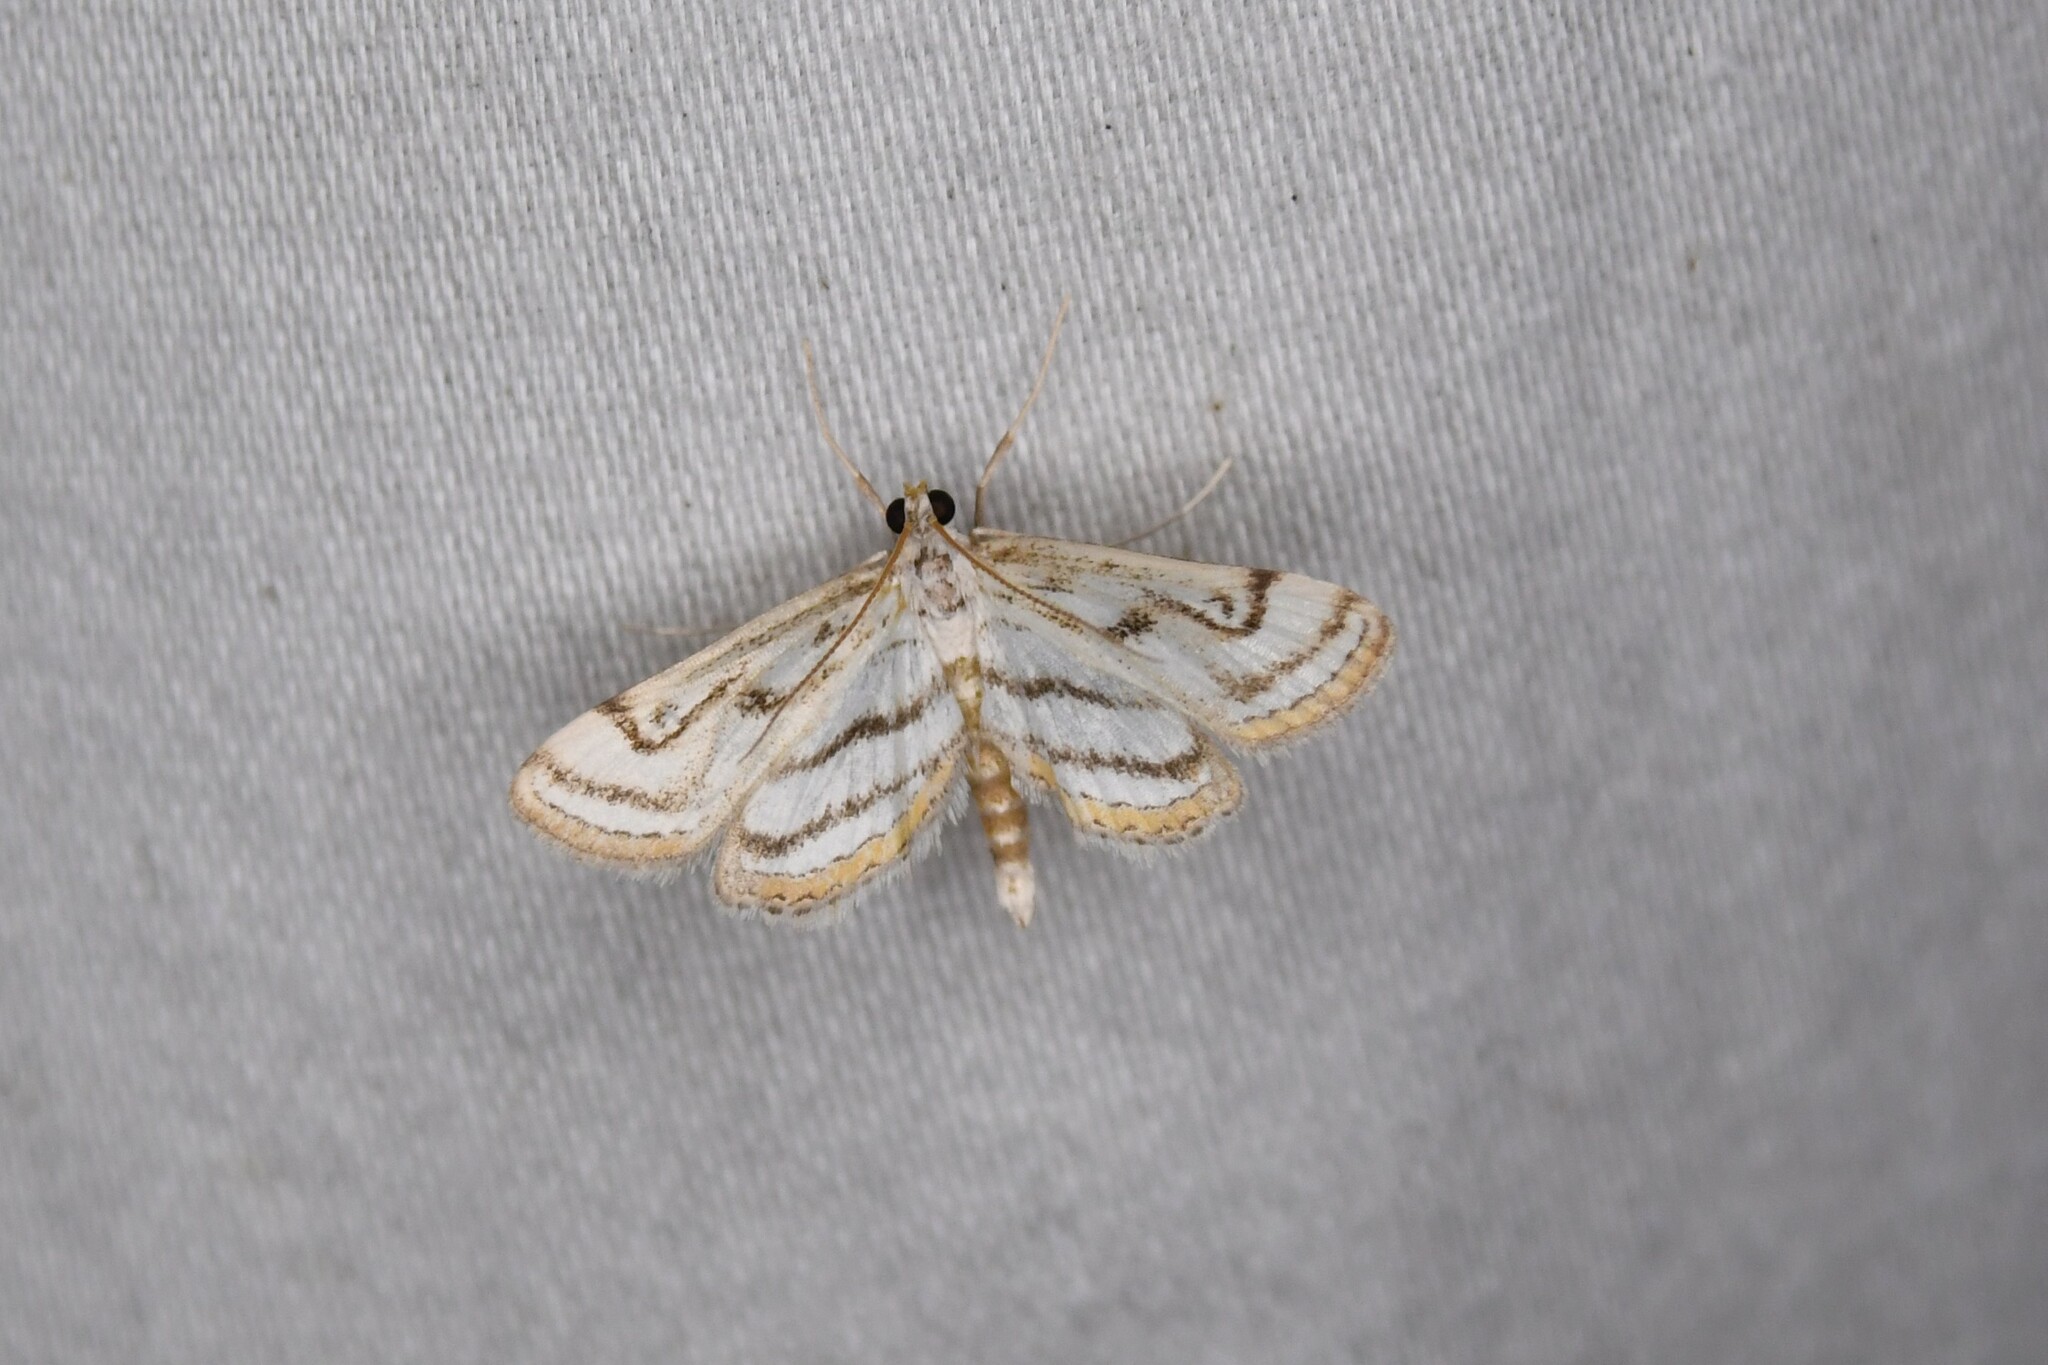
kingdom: Animalia
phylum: Arthropoda
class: Insecta
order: Lepidoptera
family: Crambidae
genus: Parapoynx
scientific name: Parapoynx badiusalis
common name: Chestnut-marked pondweed moth
